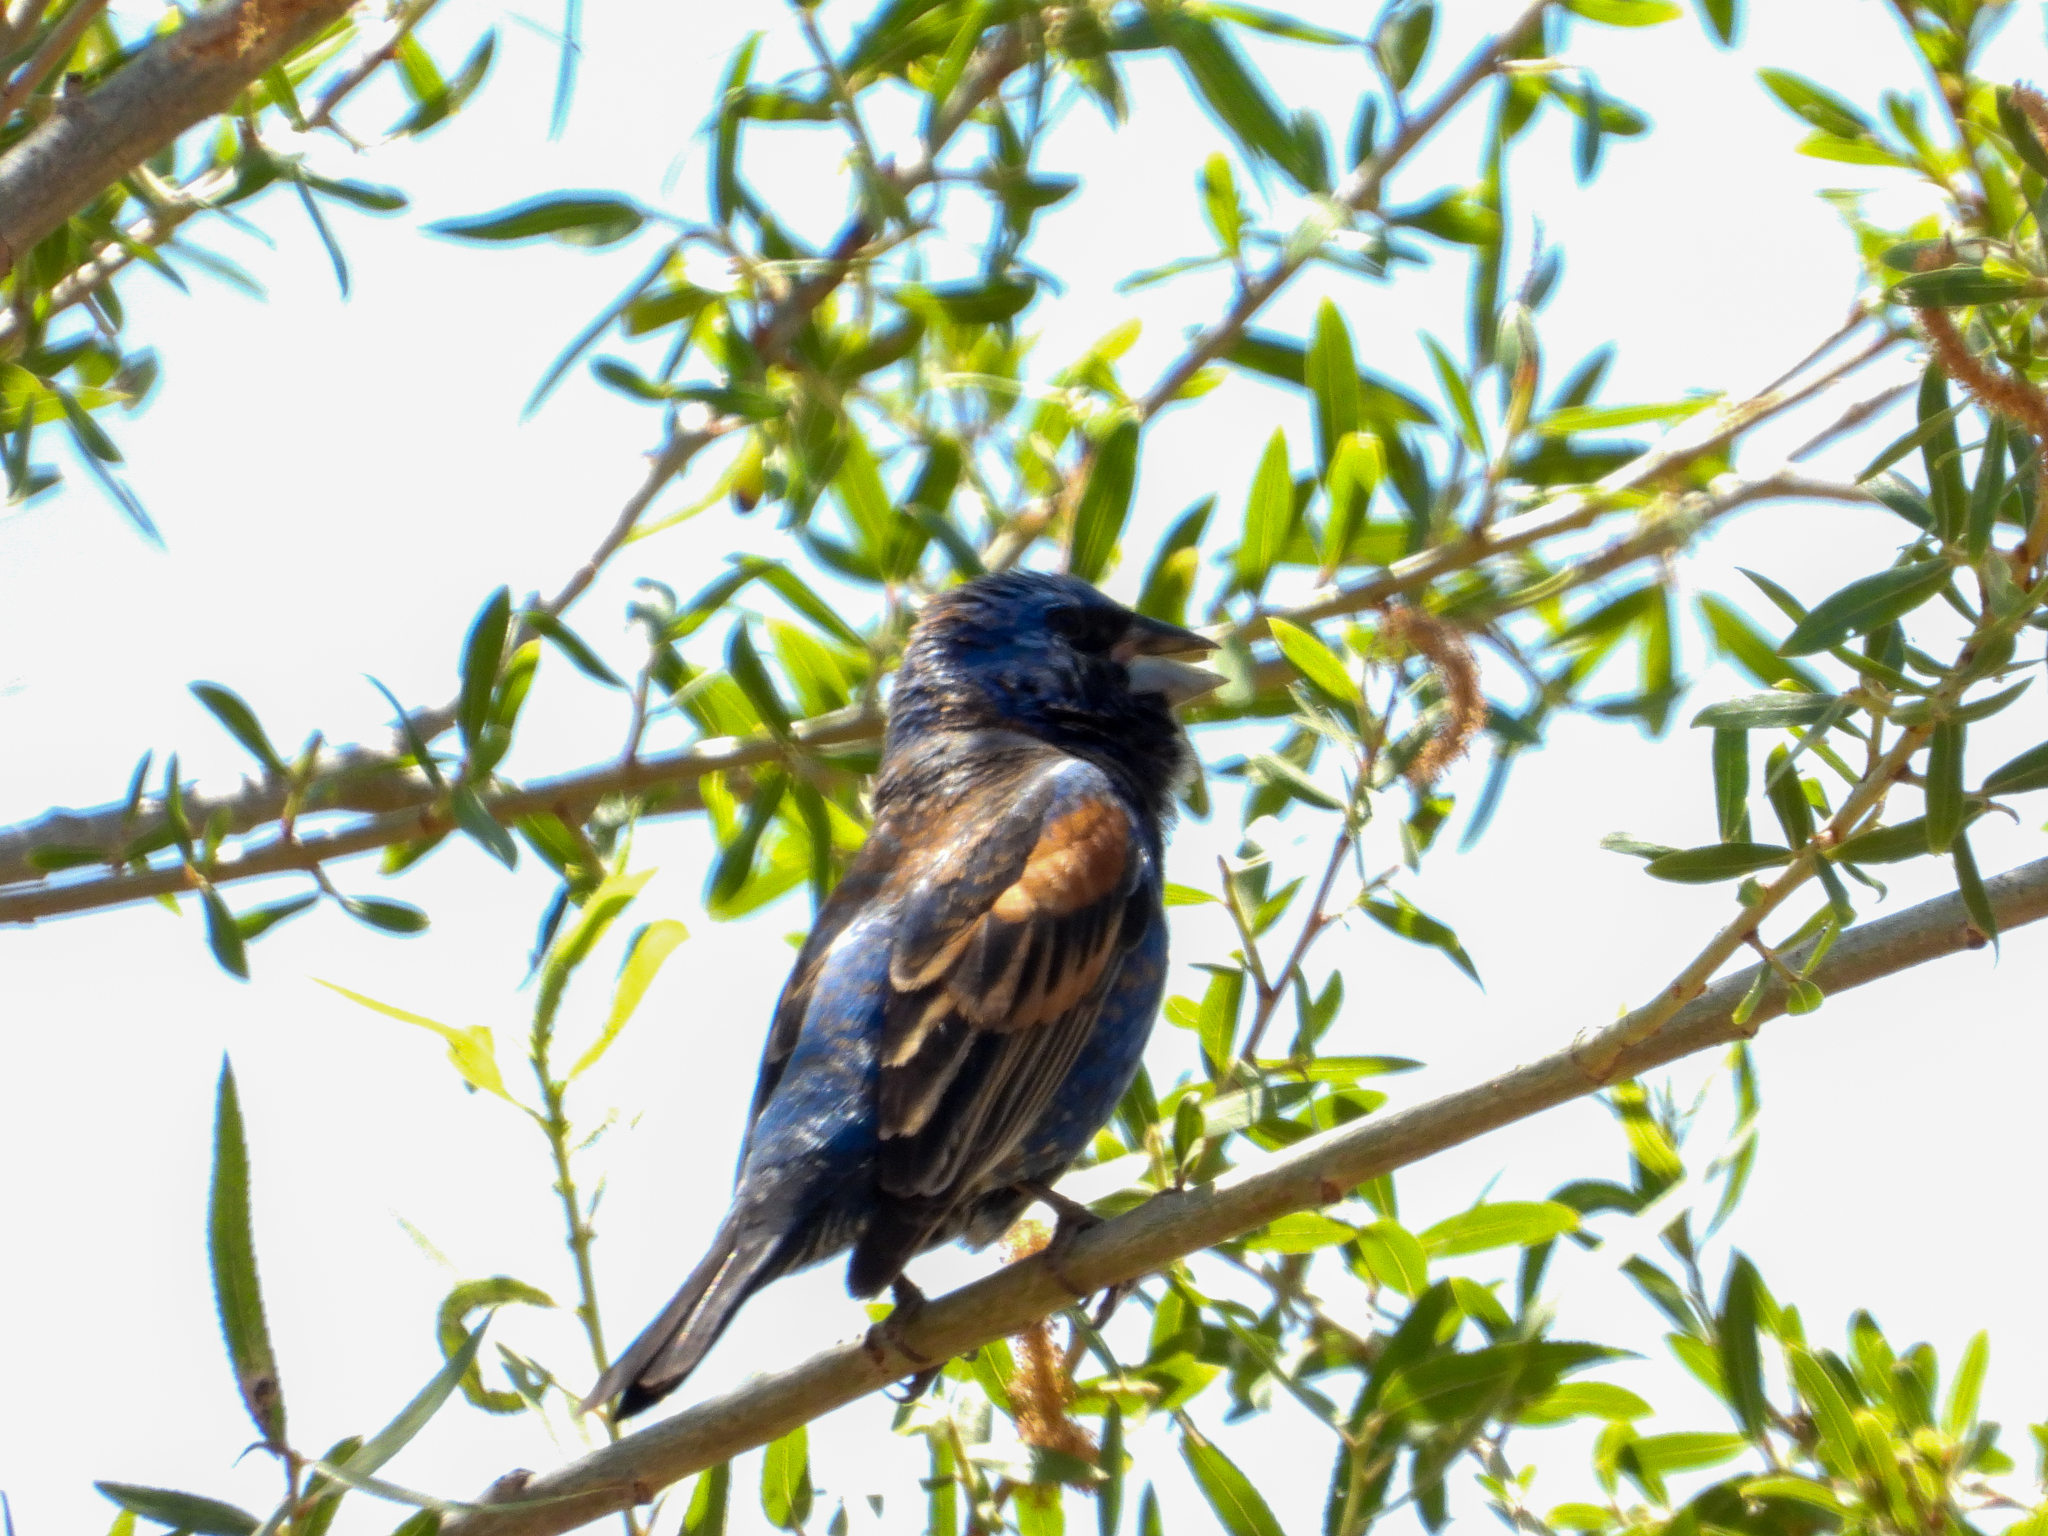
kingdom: Animalia
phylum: Chordata
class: Aves
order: Passeriformes
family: Cardinalidae
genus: Passerina
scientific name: Passerina caerulea
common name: Blue grosbeak
